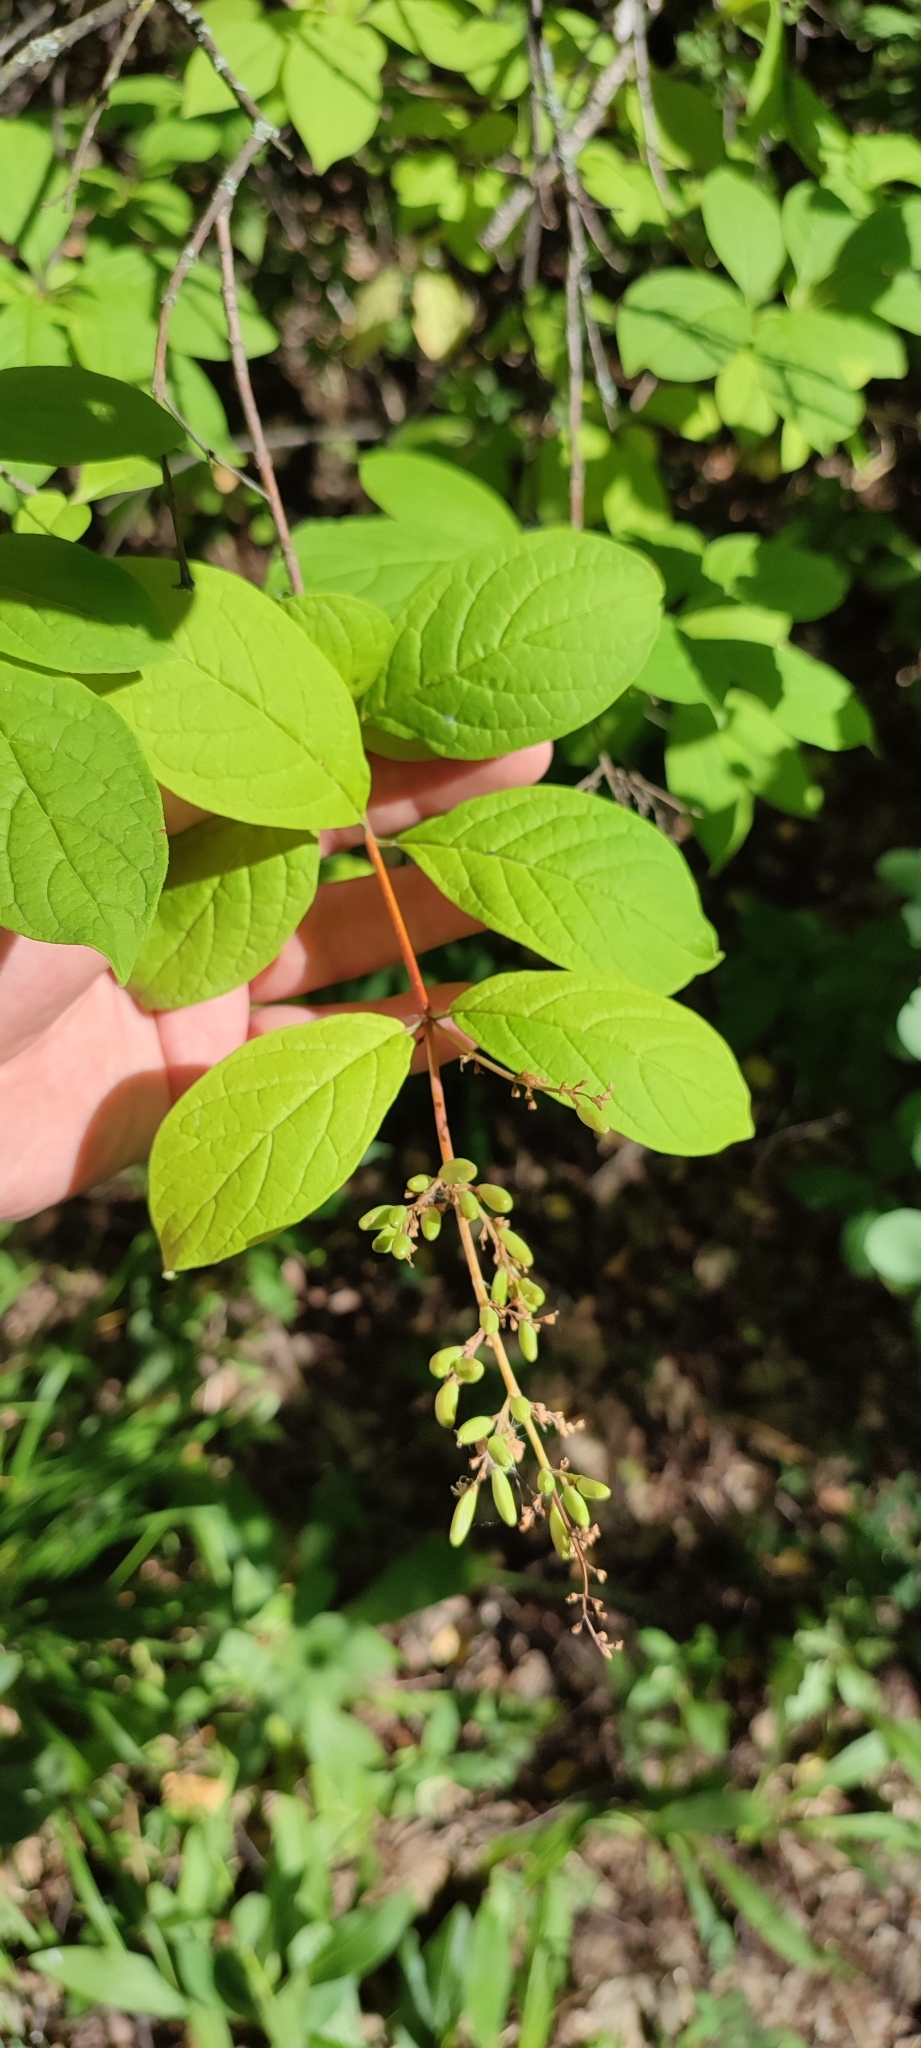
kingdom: Plantae
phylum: Tracheophyta
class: Magnoliopsida
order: Lamiales
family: Oleaceae
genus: Syringa
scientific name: Syringa henryi
